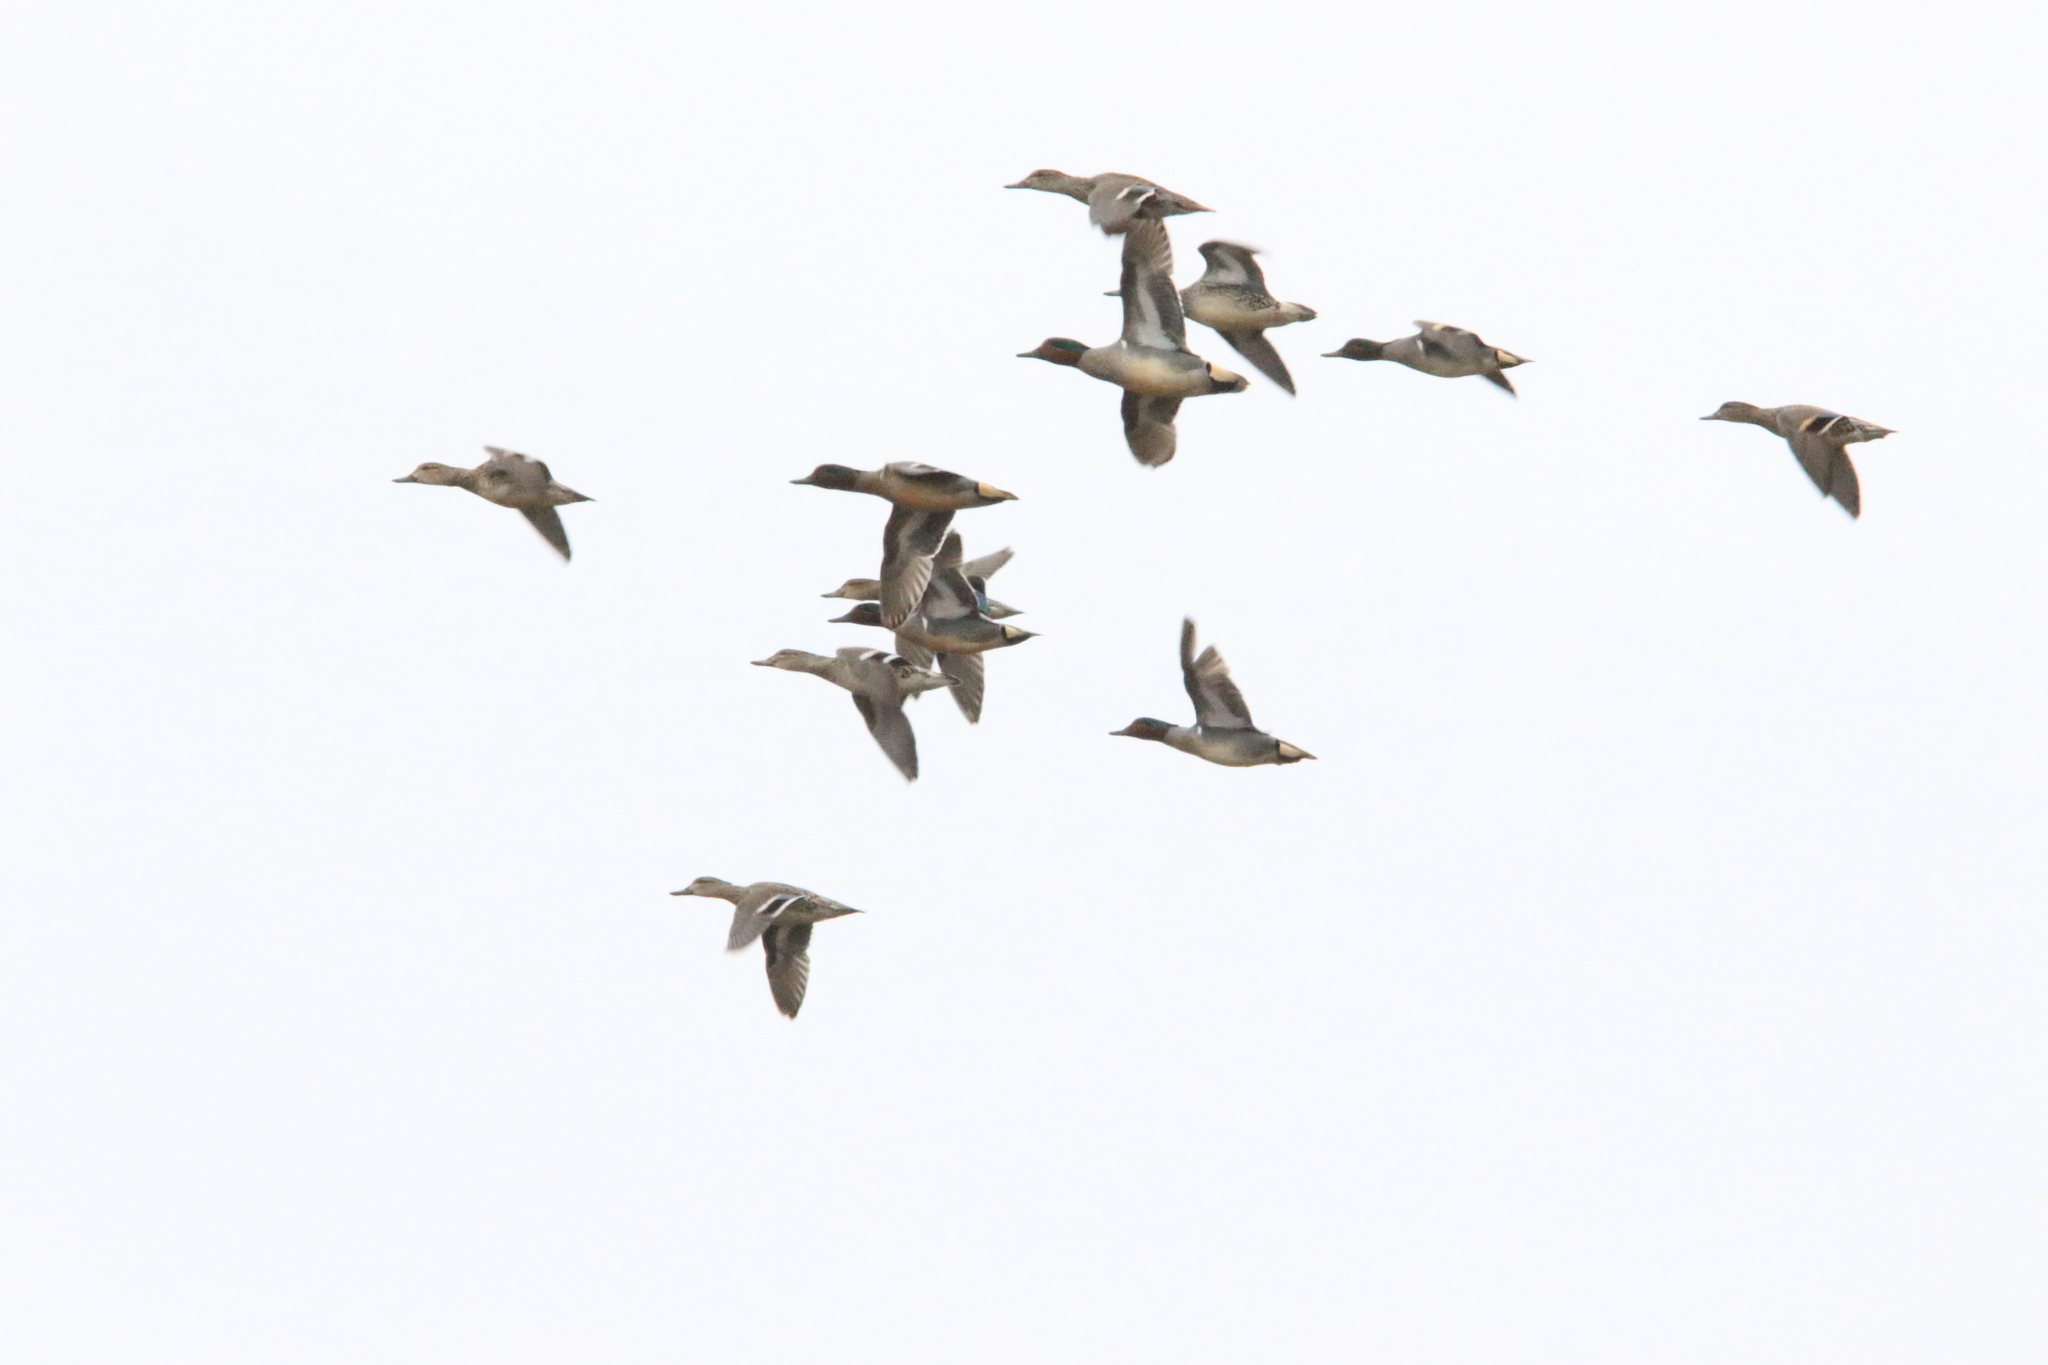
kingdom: Animalia
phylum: Chordata
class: Aves
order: Anseriformes
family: Anatidae
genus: Anas
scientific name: Anas crecca
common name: Eurasian teal
